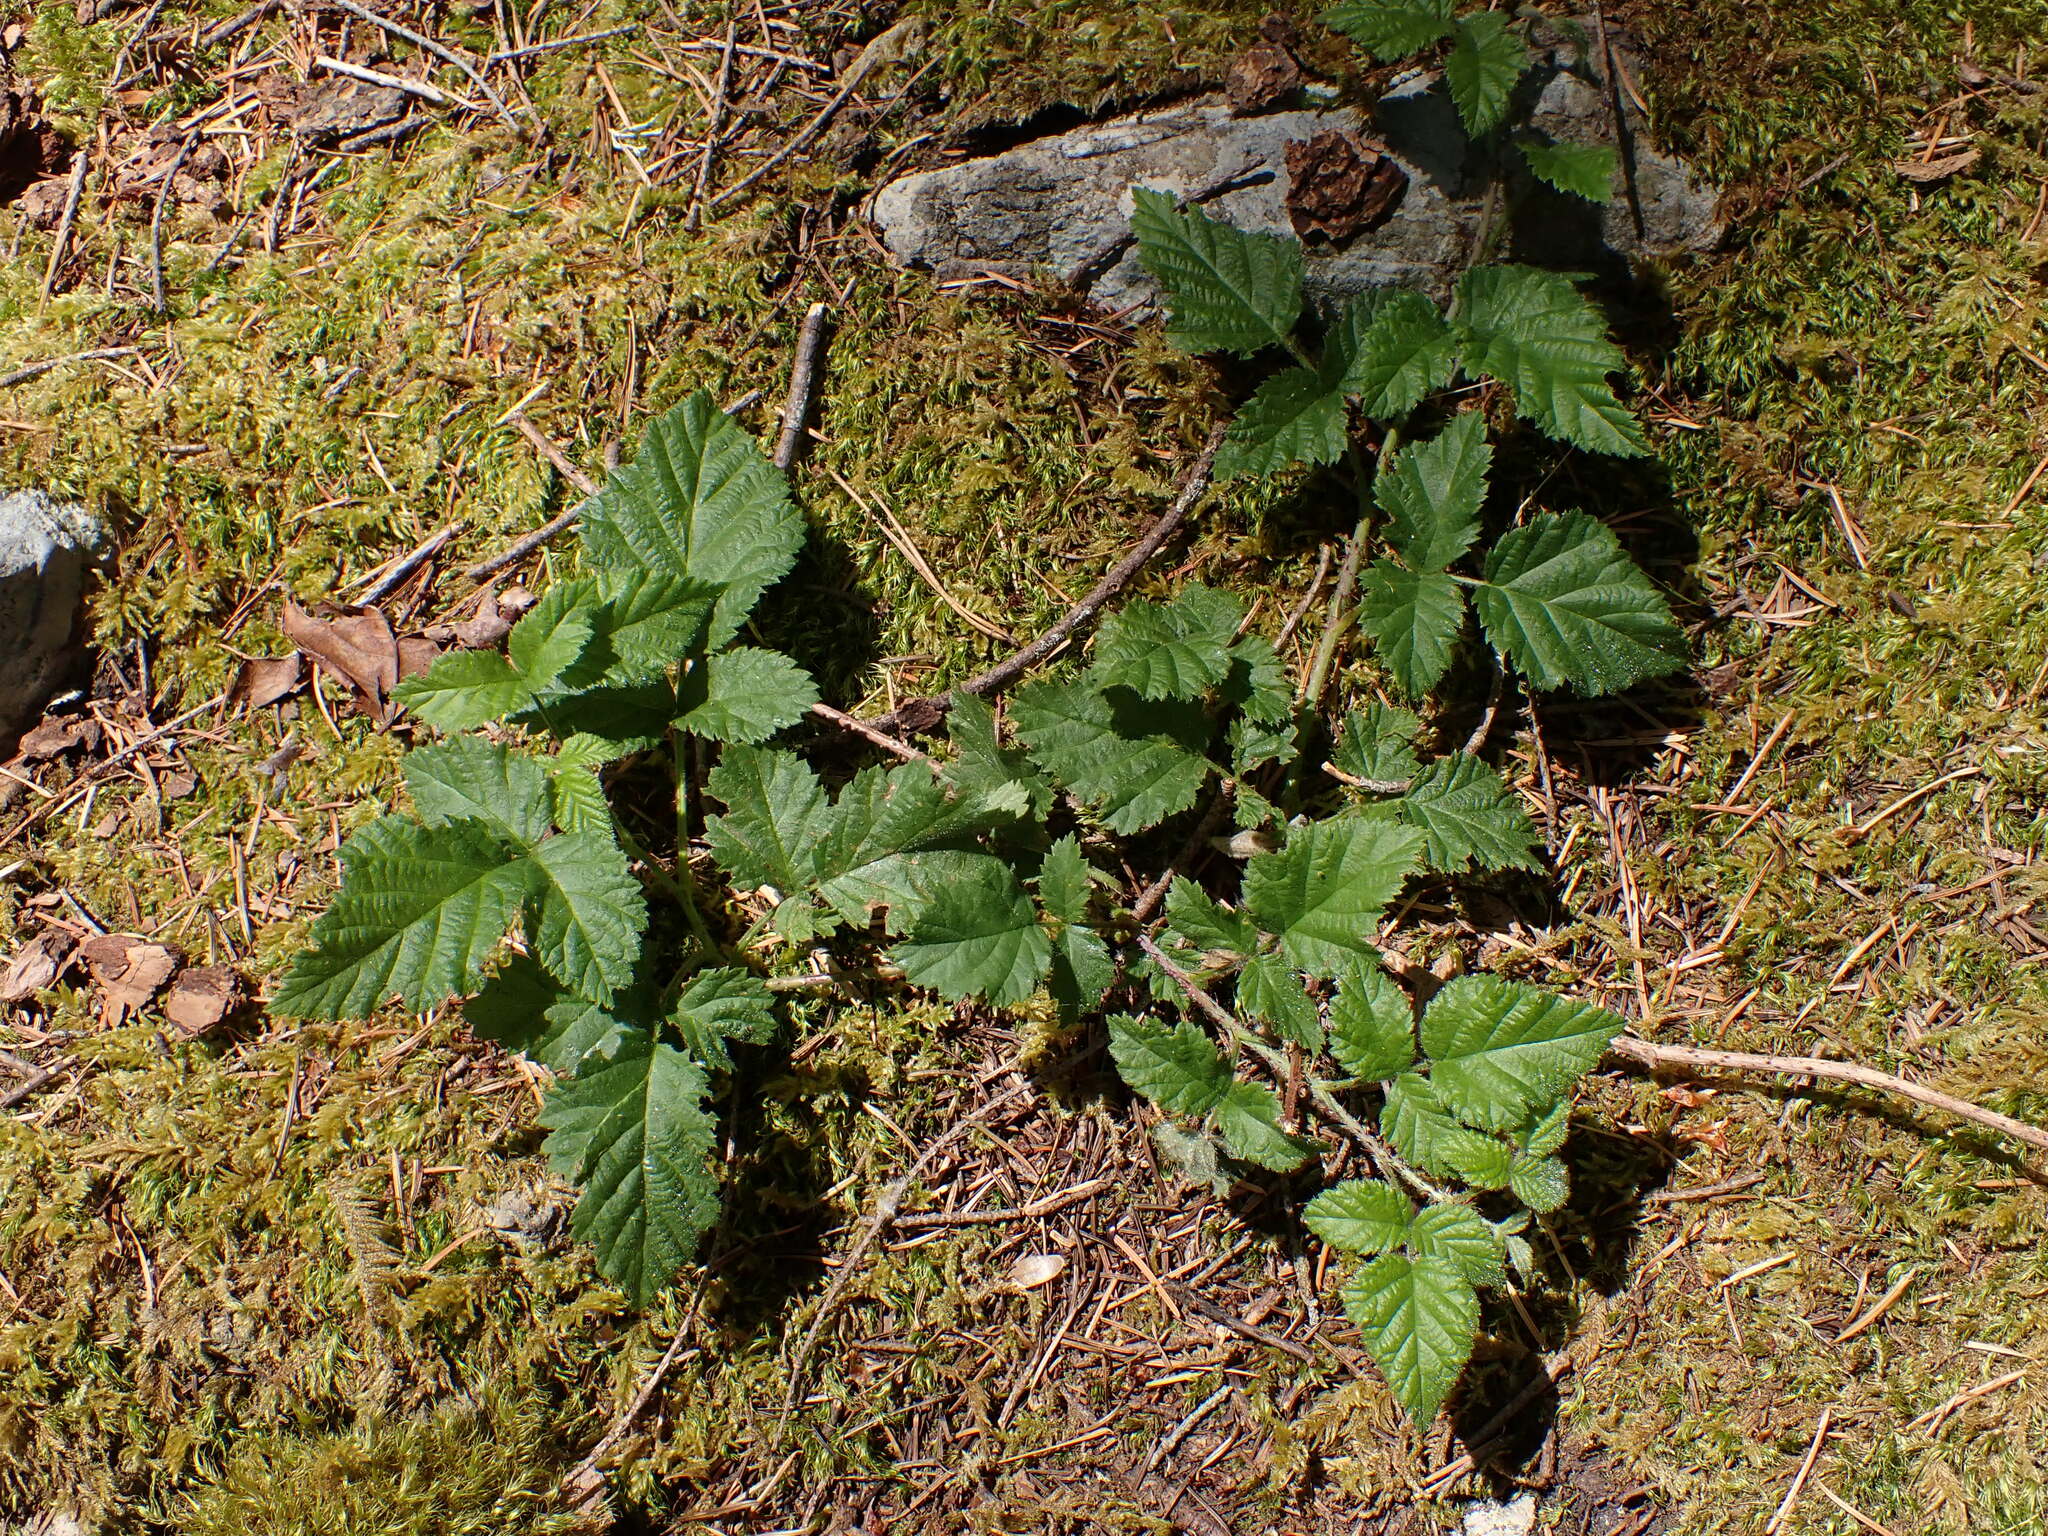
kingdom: Plantae
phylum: Tracheophyta
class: Magnoliopsida
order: Rosales
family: Rosaceae
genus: Rubus
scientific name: Rubus ursinus
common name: Pacific blackberry
